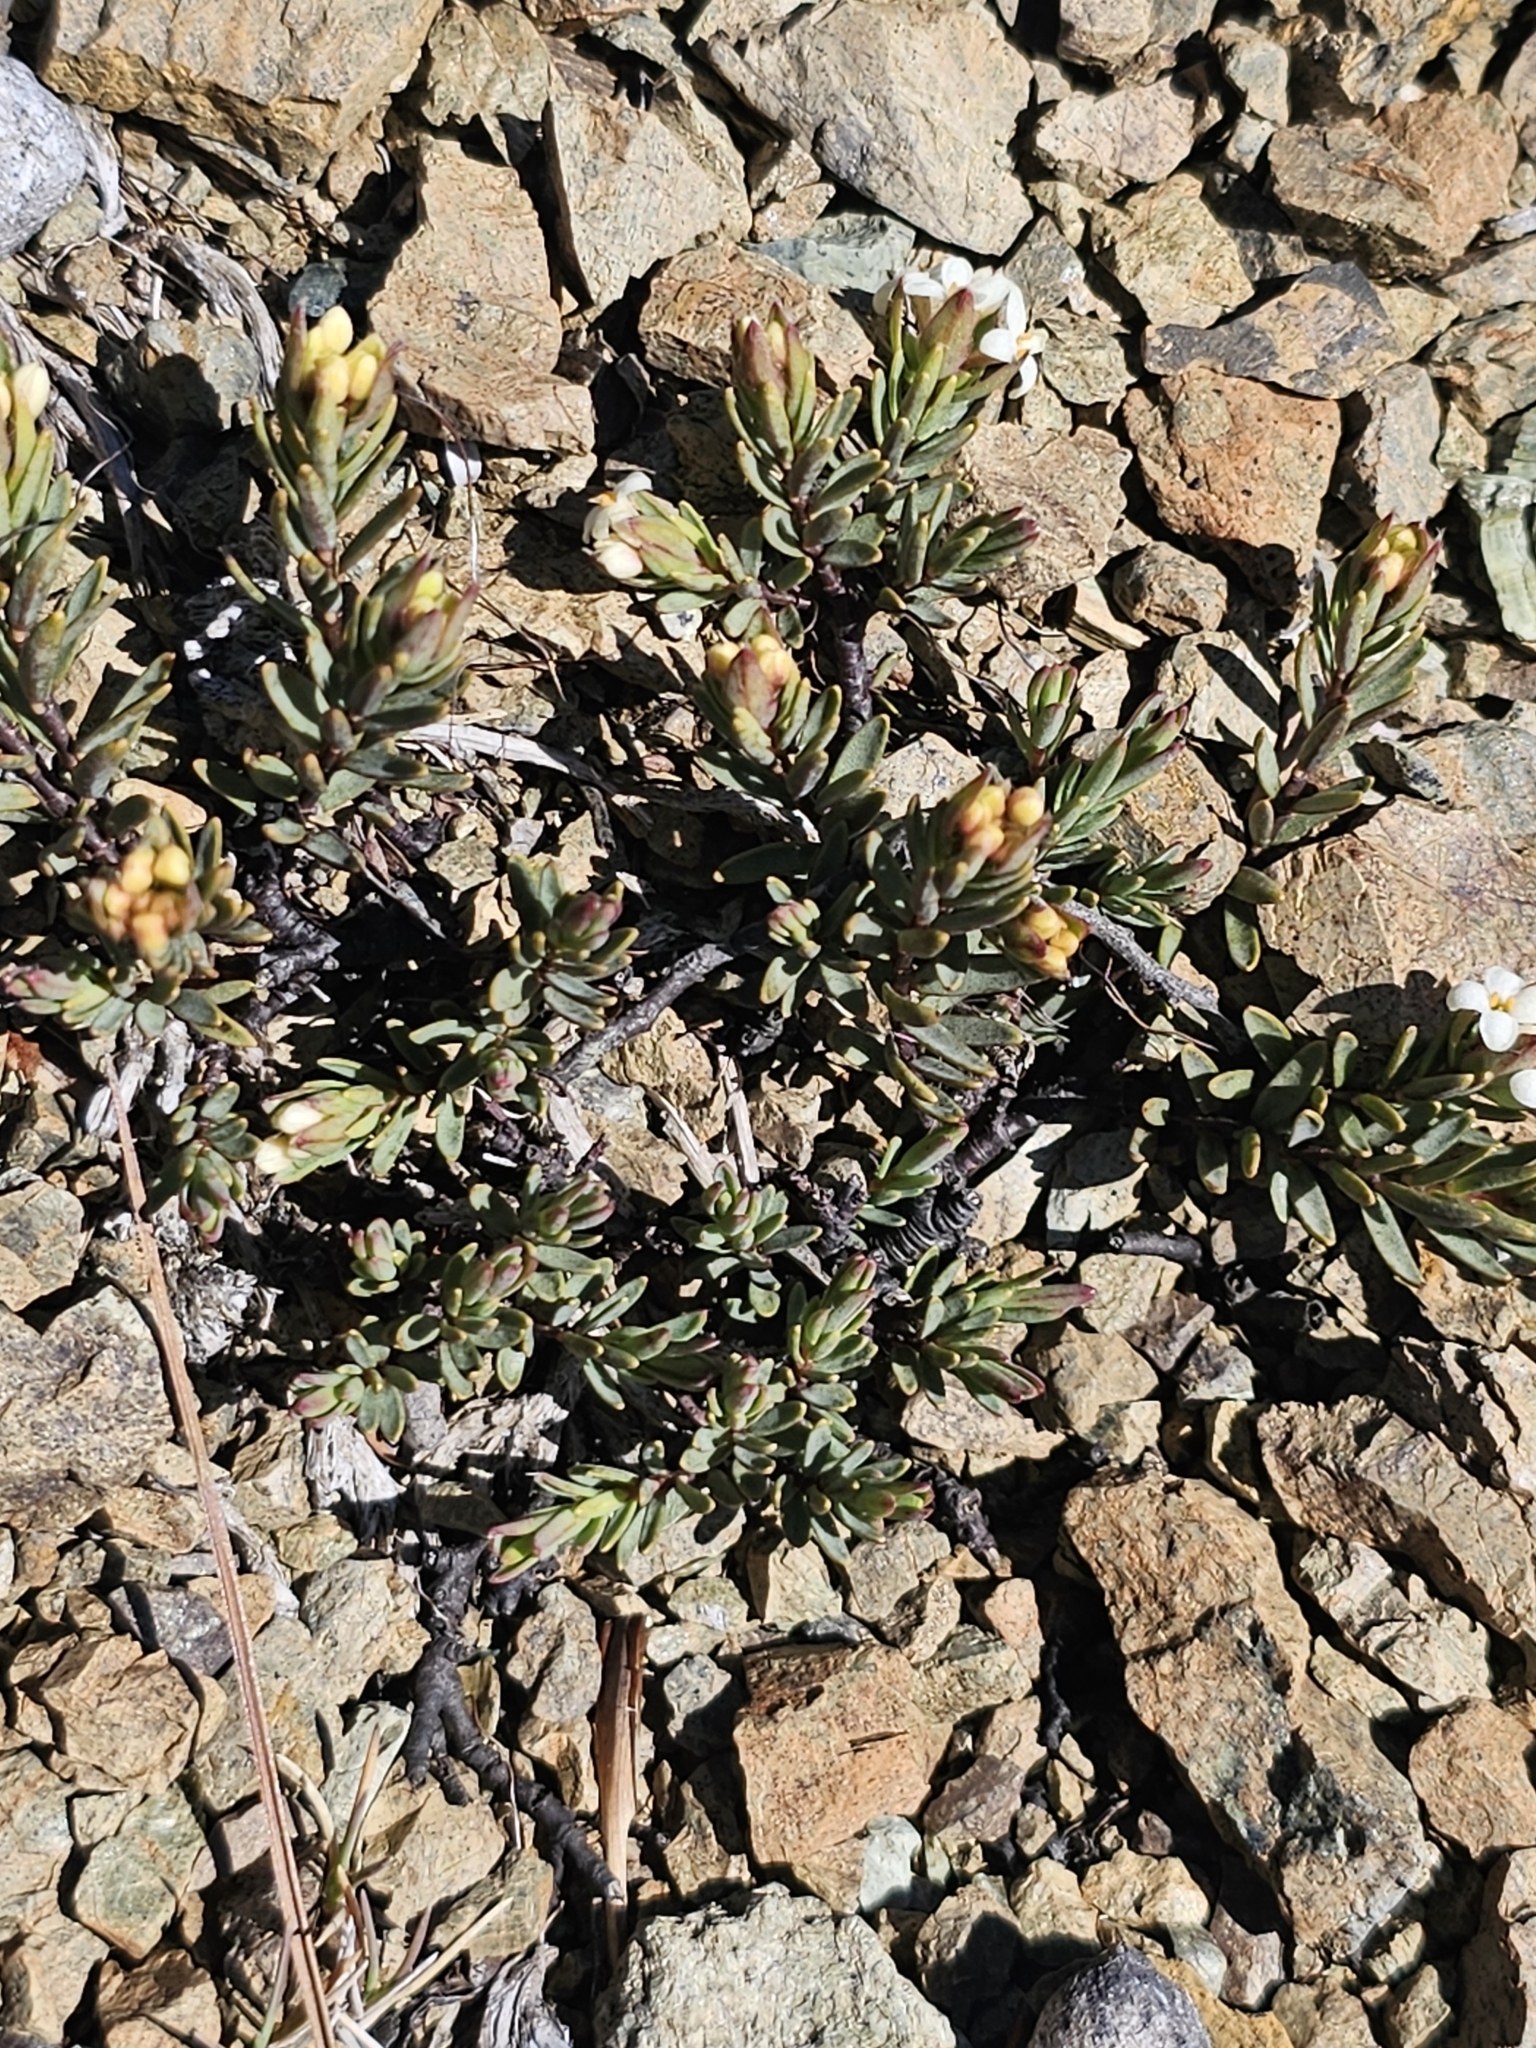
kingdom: Plantae
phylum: Tracheophyta
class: Magnoliopsida
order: Malvales
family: Thymelaeaceae
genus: Pimelea
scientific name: Pimelea suteri
